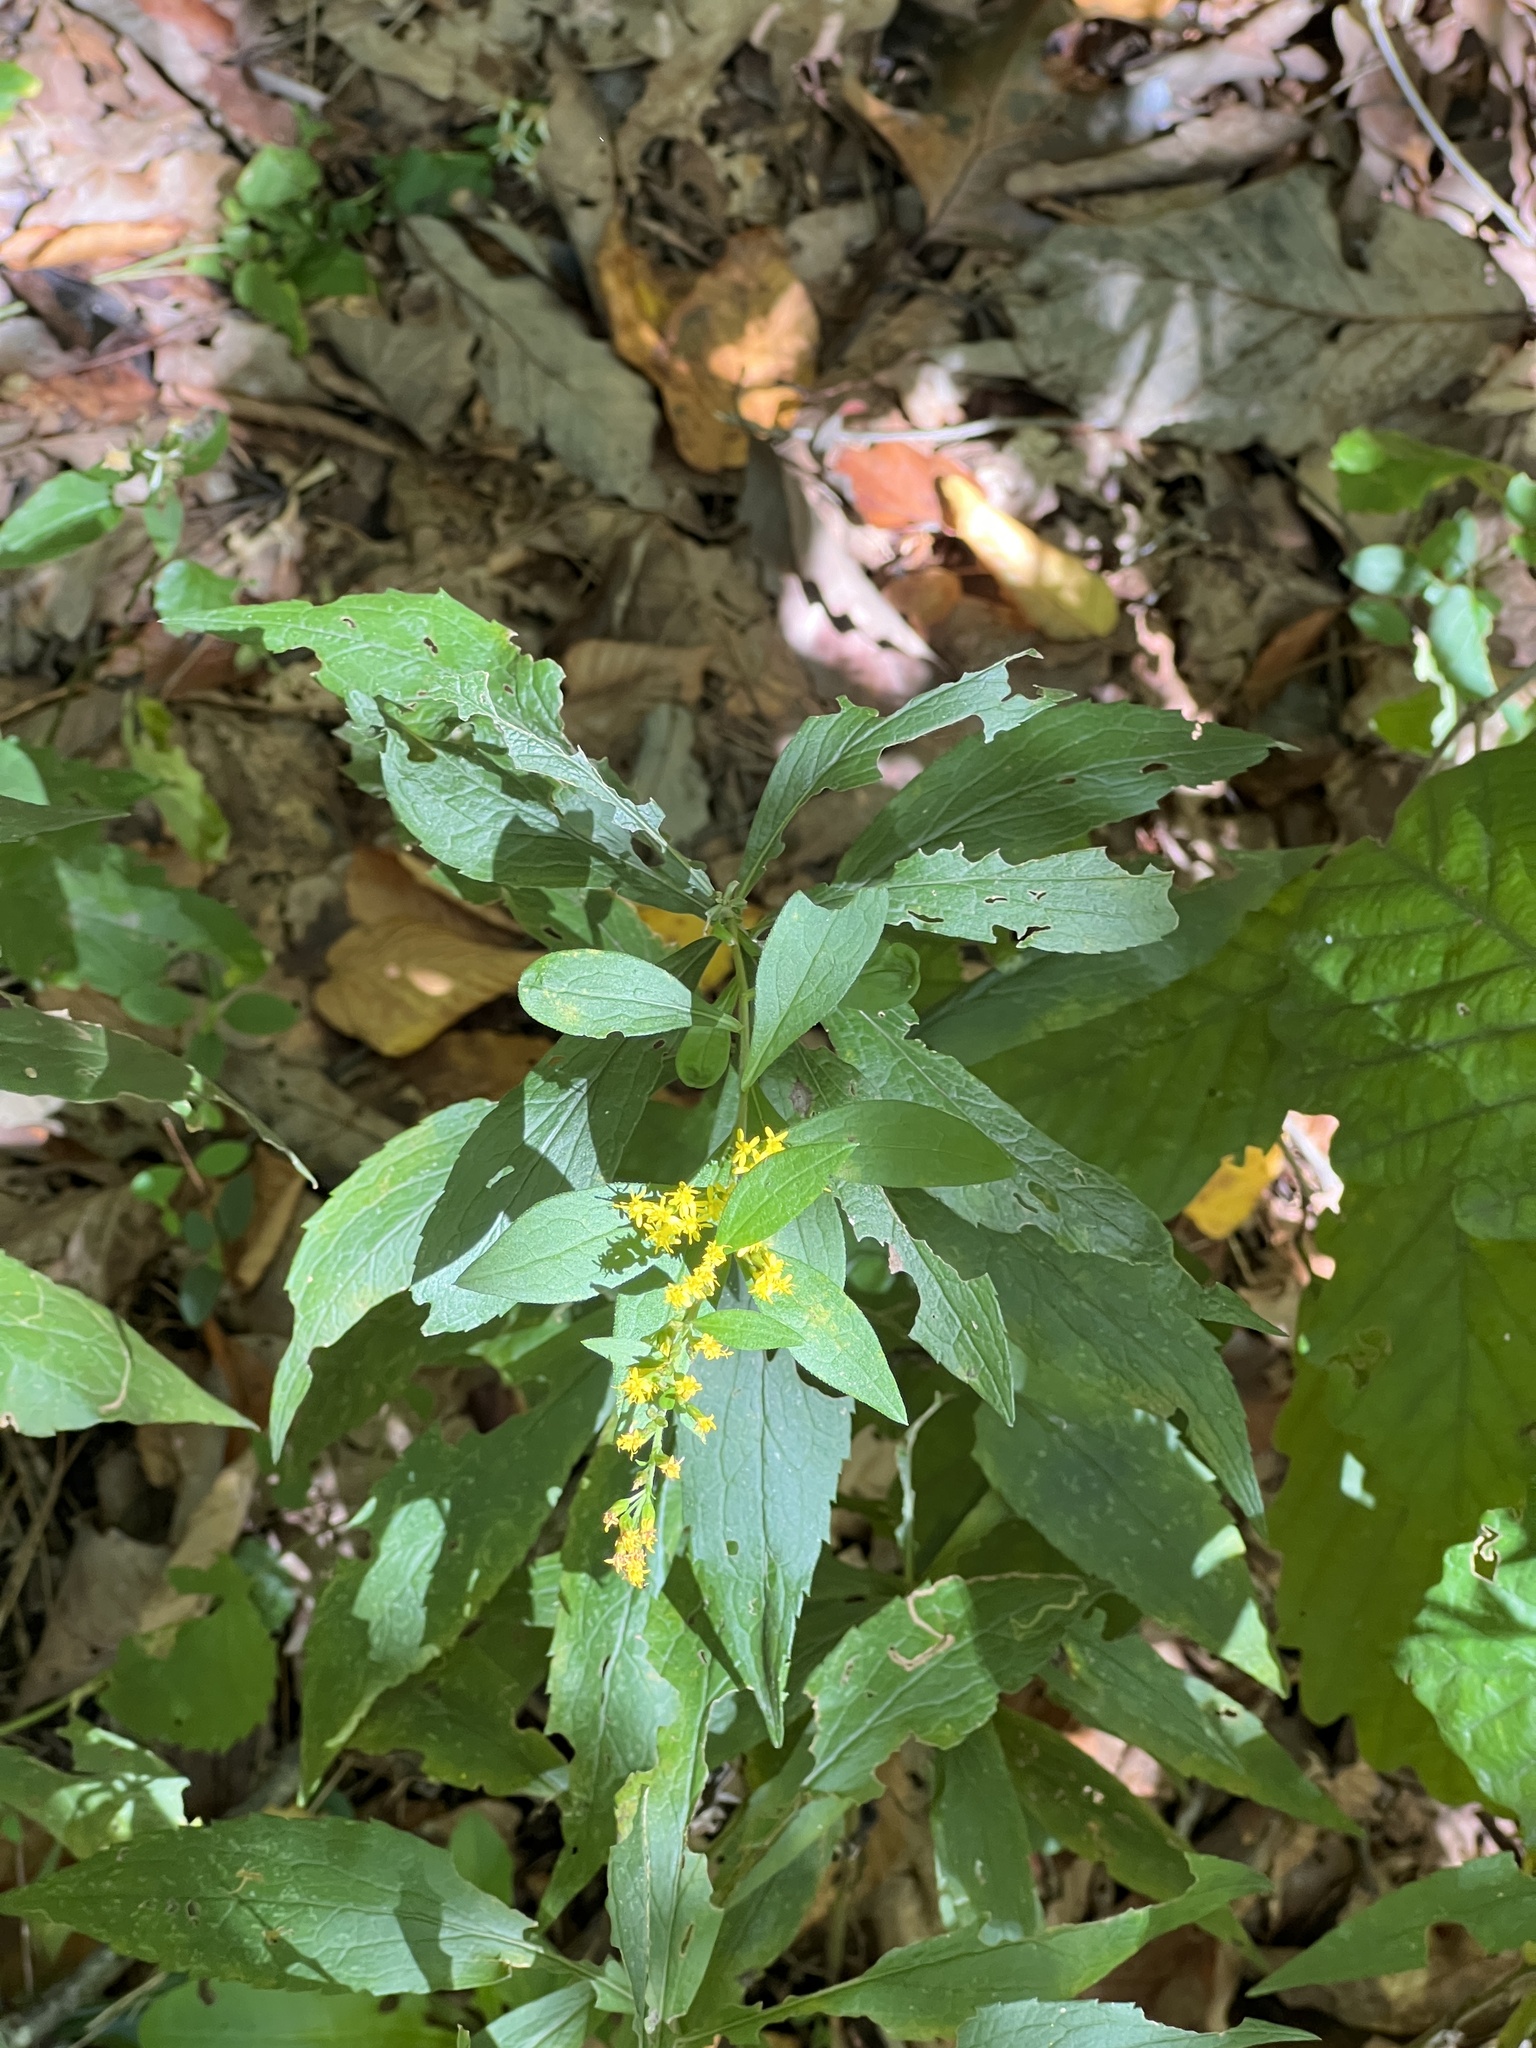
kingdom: Plantae
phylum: Tracheophyta
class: Magnoliopsida
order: Asterales
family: Asteraceae
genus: Solidago
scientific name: Solidago rugosa
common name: Rough-stemmed goldenrod
